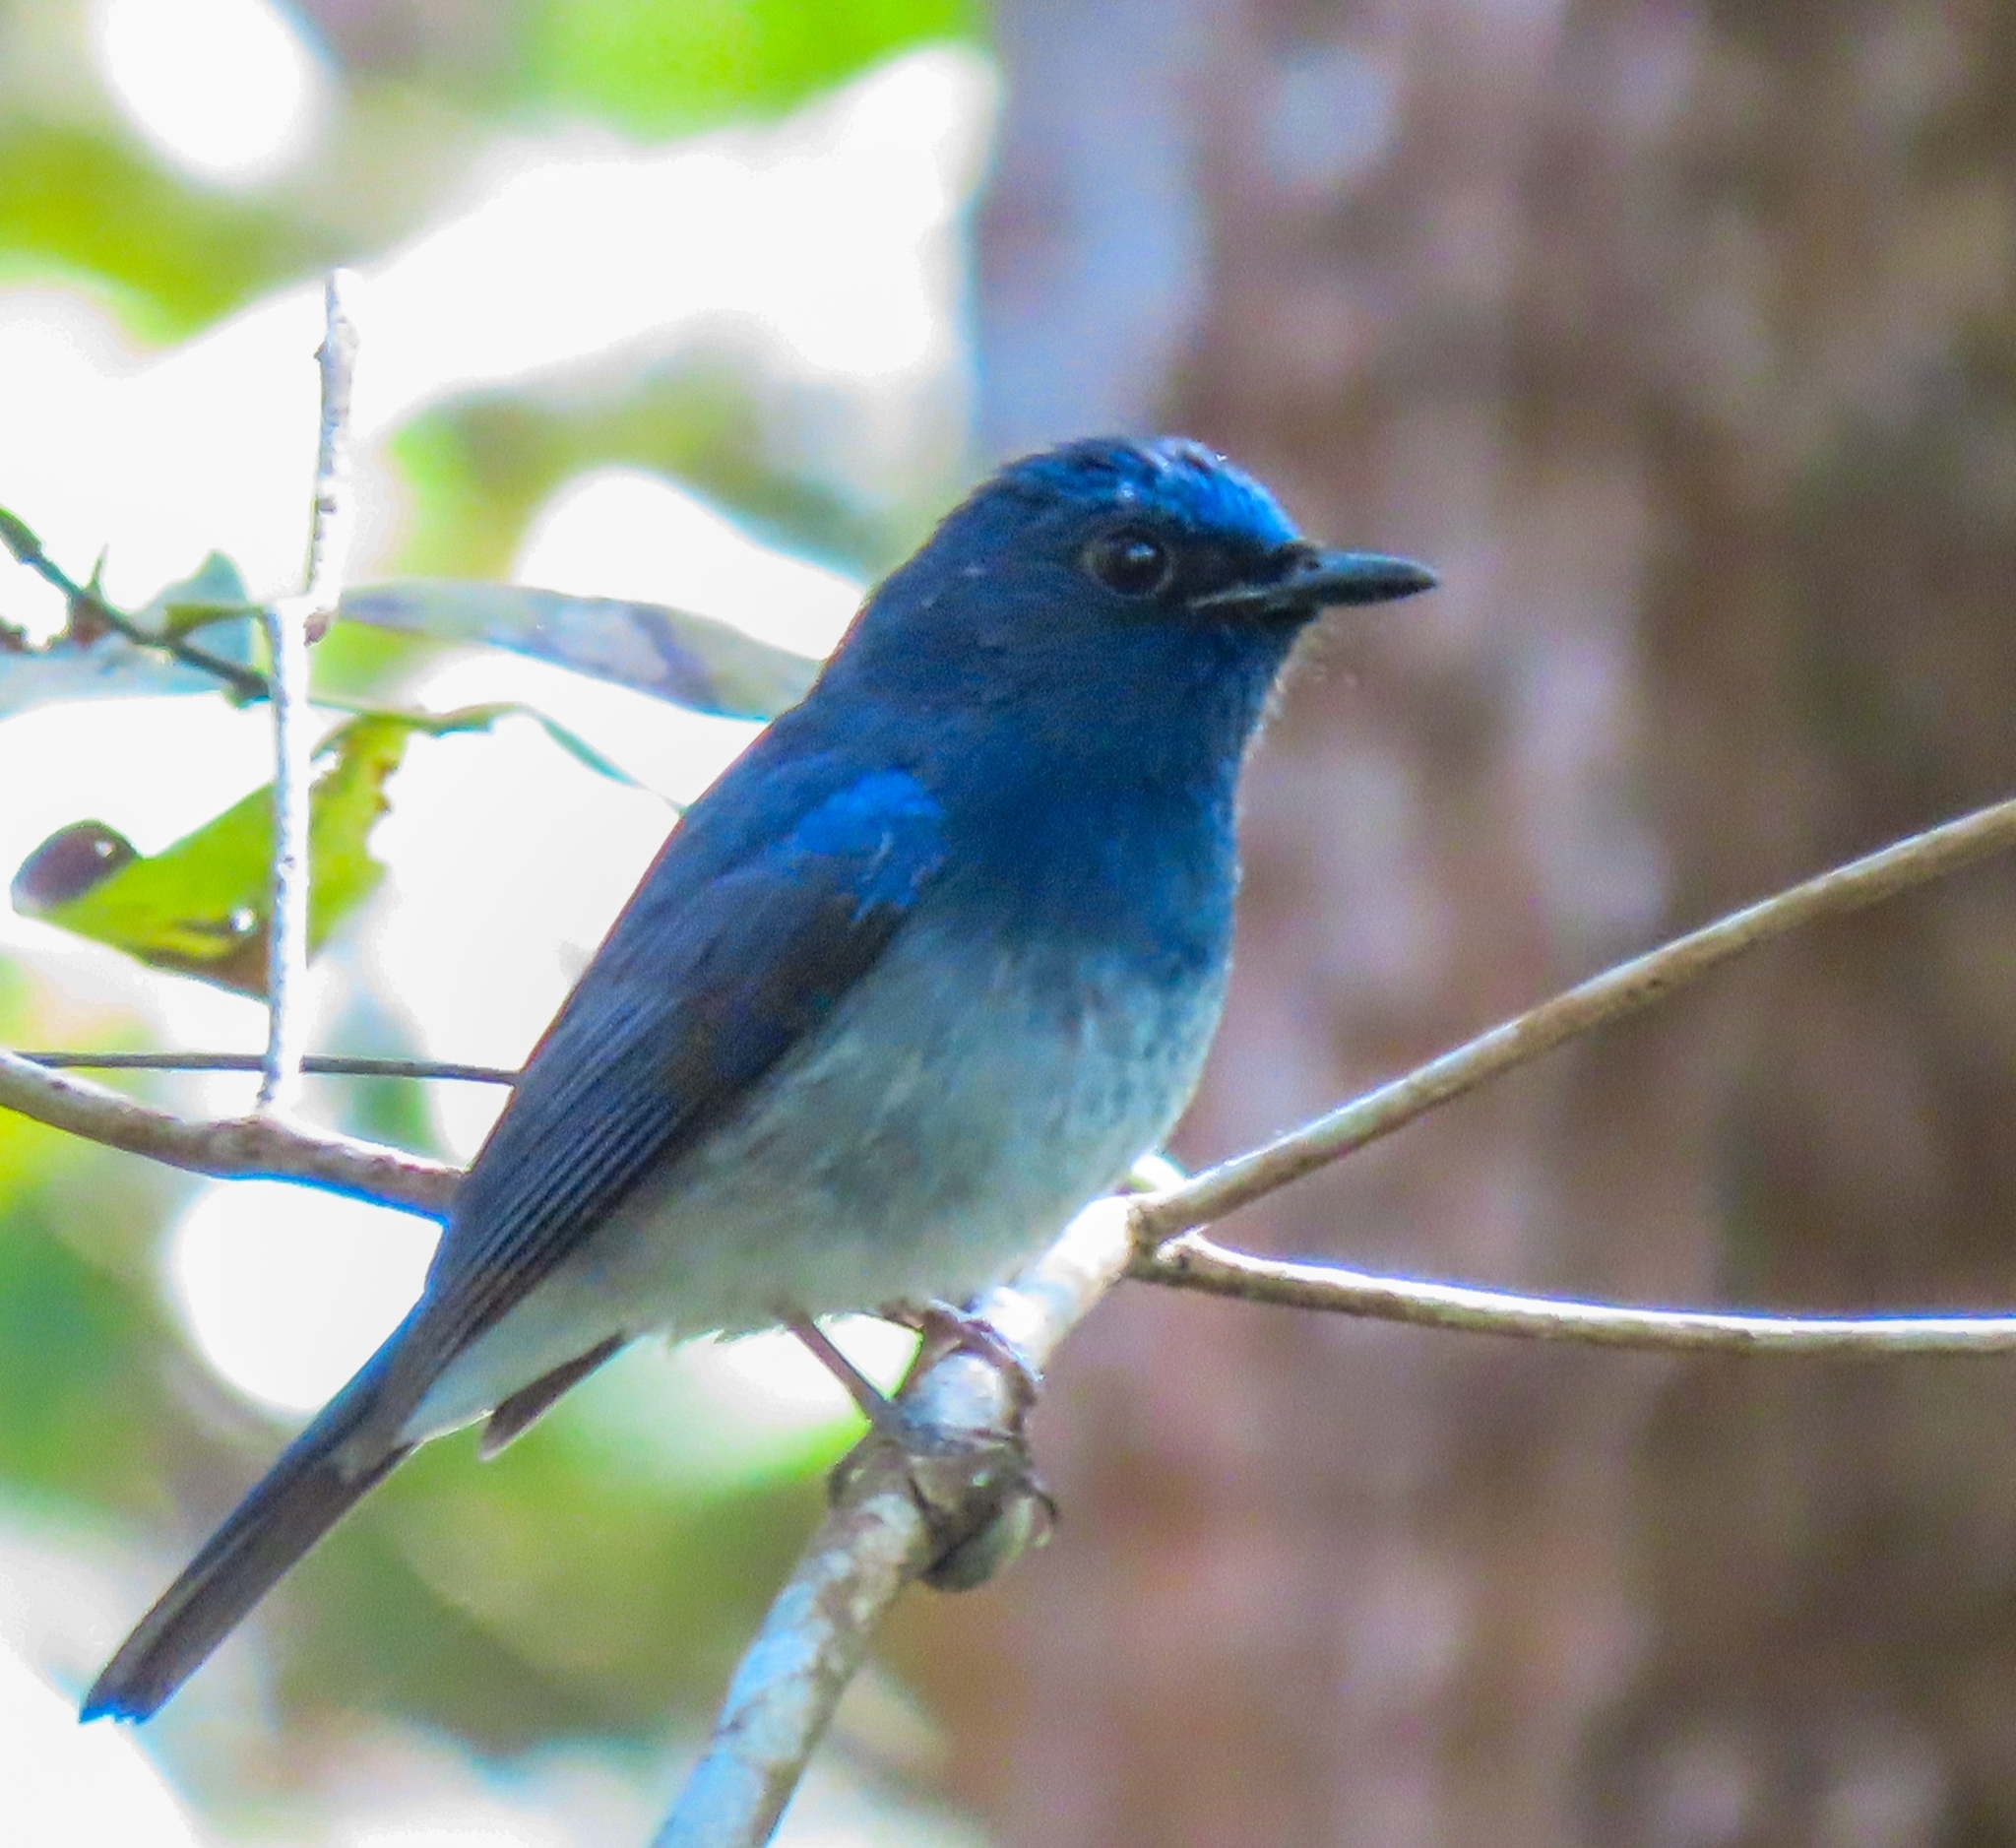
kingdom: Animalia
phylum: Chordata
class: Aves
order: Passeriformes
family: Muscicapidae
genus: Cyornis
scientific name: Cyornis hainanus
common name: Hainan blue flycatcher
